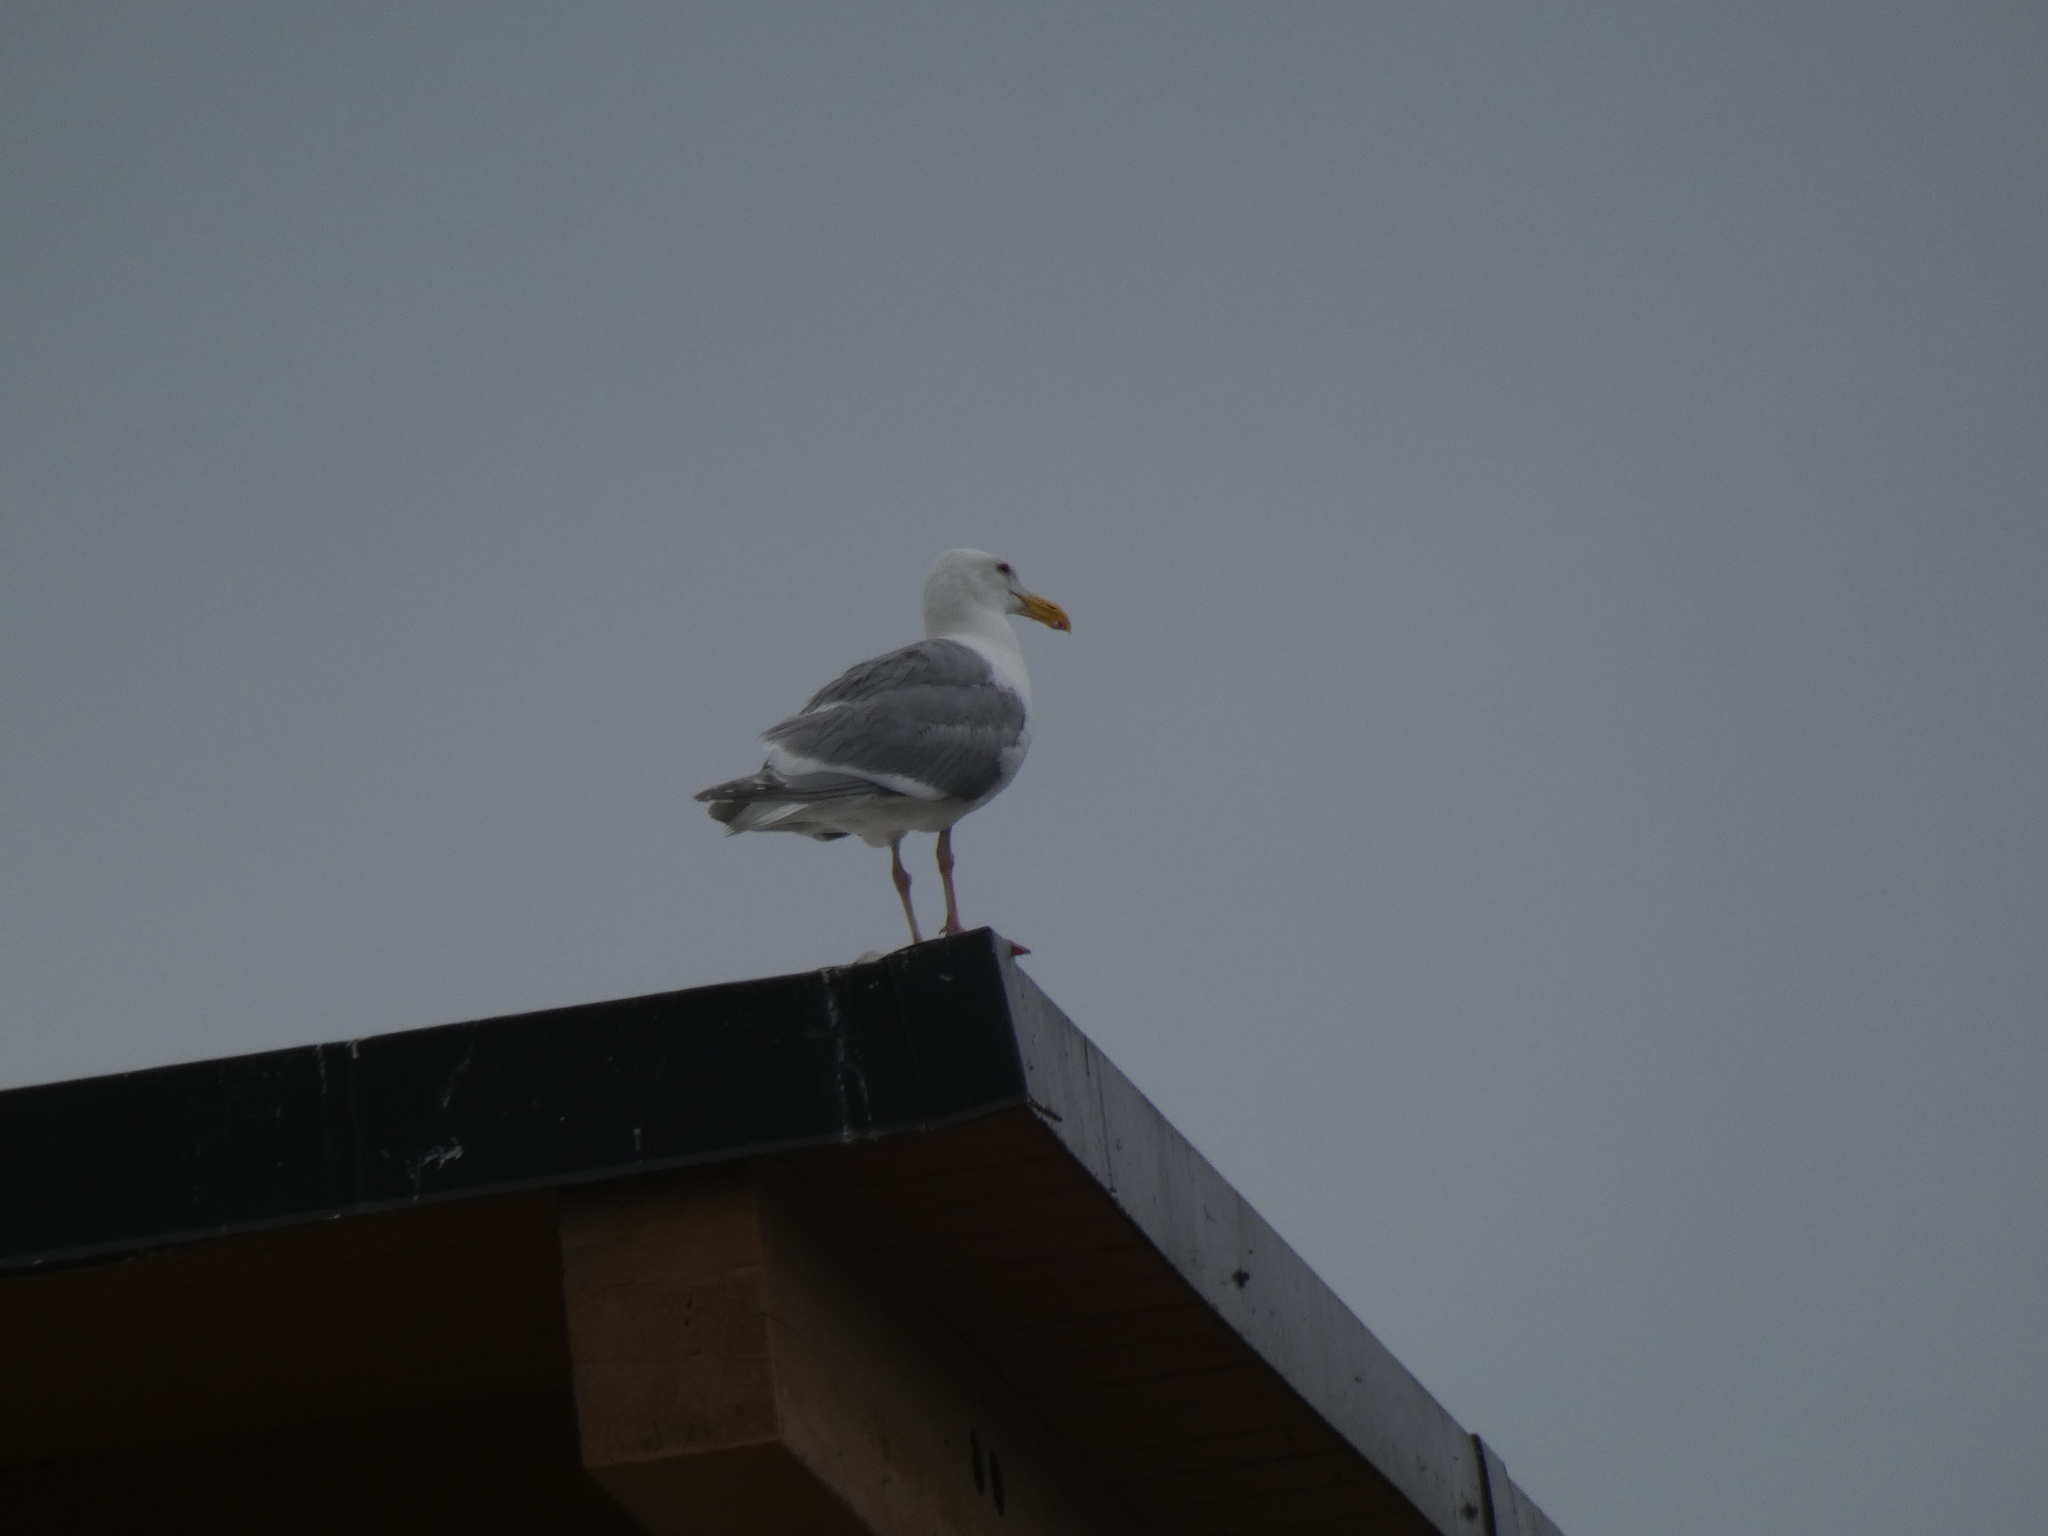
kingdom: Animalia
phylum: Chordata
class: Aves
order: Charadriiformes
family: Laridae
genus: Larus
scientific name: Larus
